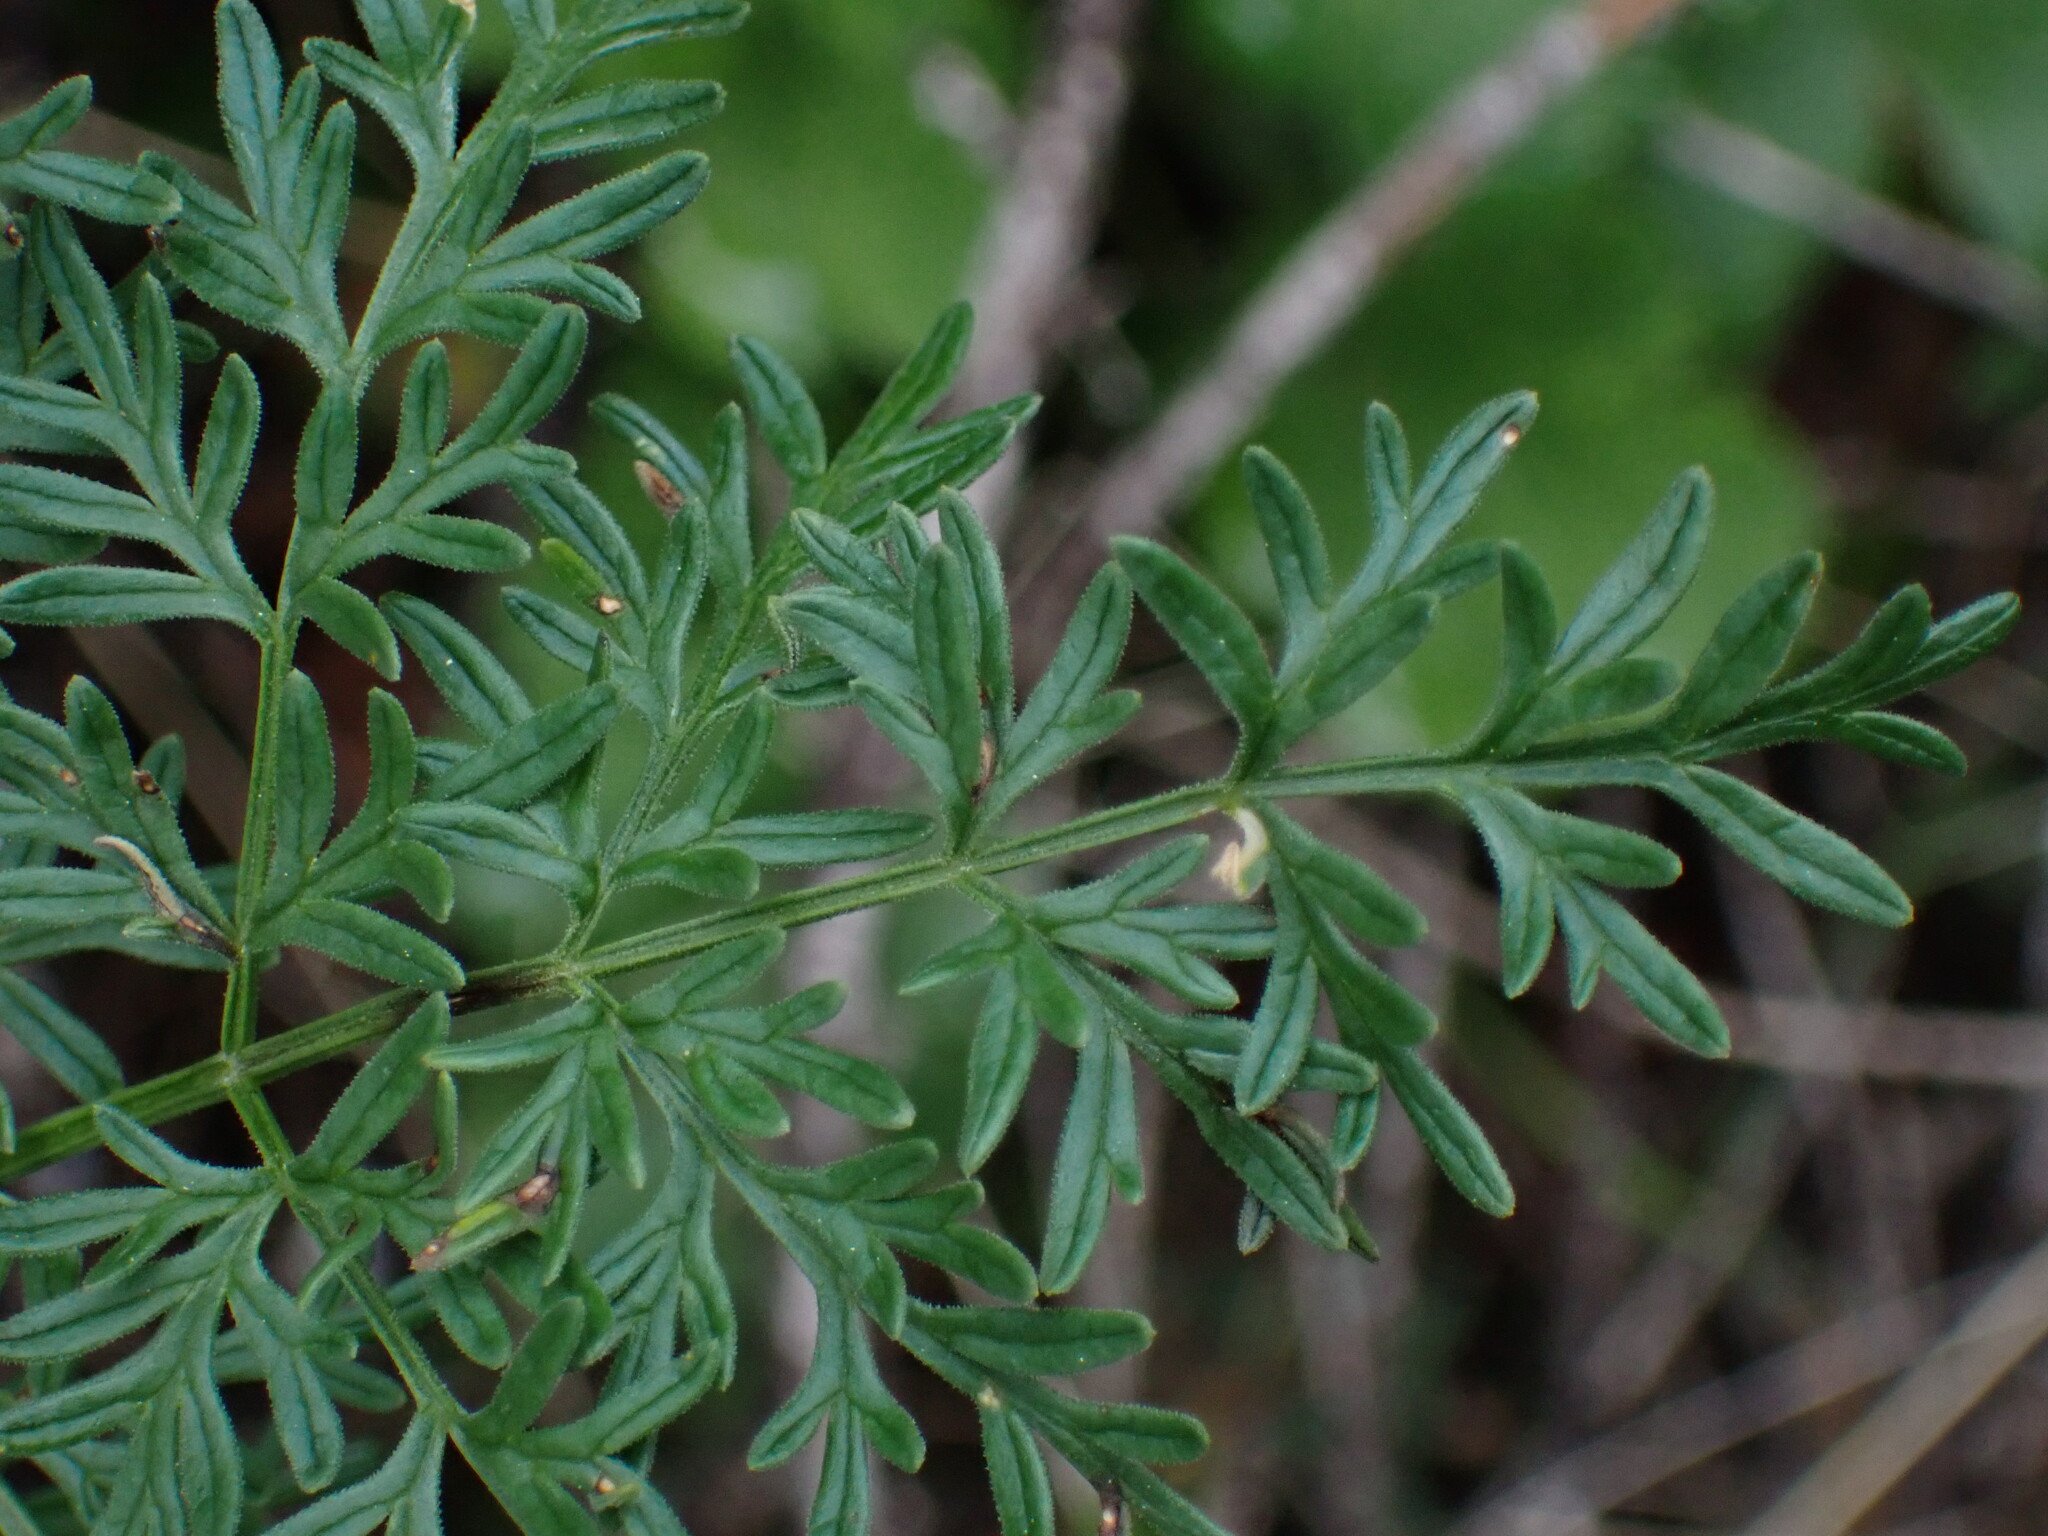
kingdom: Plantae
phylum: Tracheophyta
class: Magnoliopsida
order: Apiales
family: Apiaceae
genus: Lomatium
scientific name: Lomatium multifidum
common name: Carrot-leaved biscuitroot
